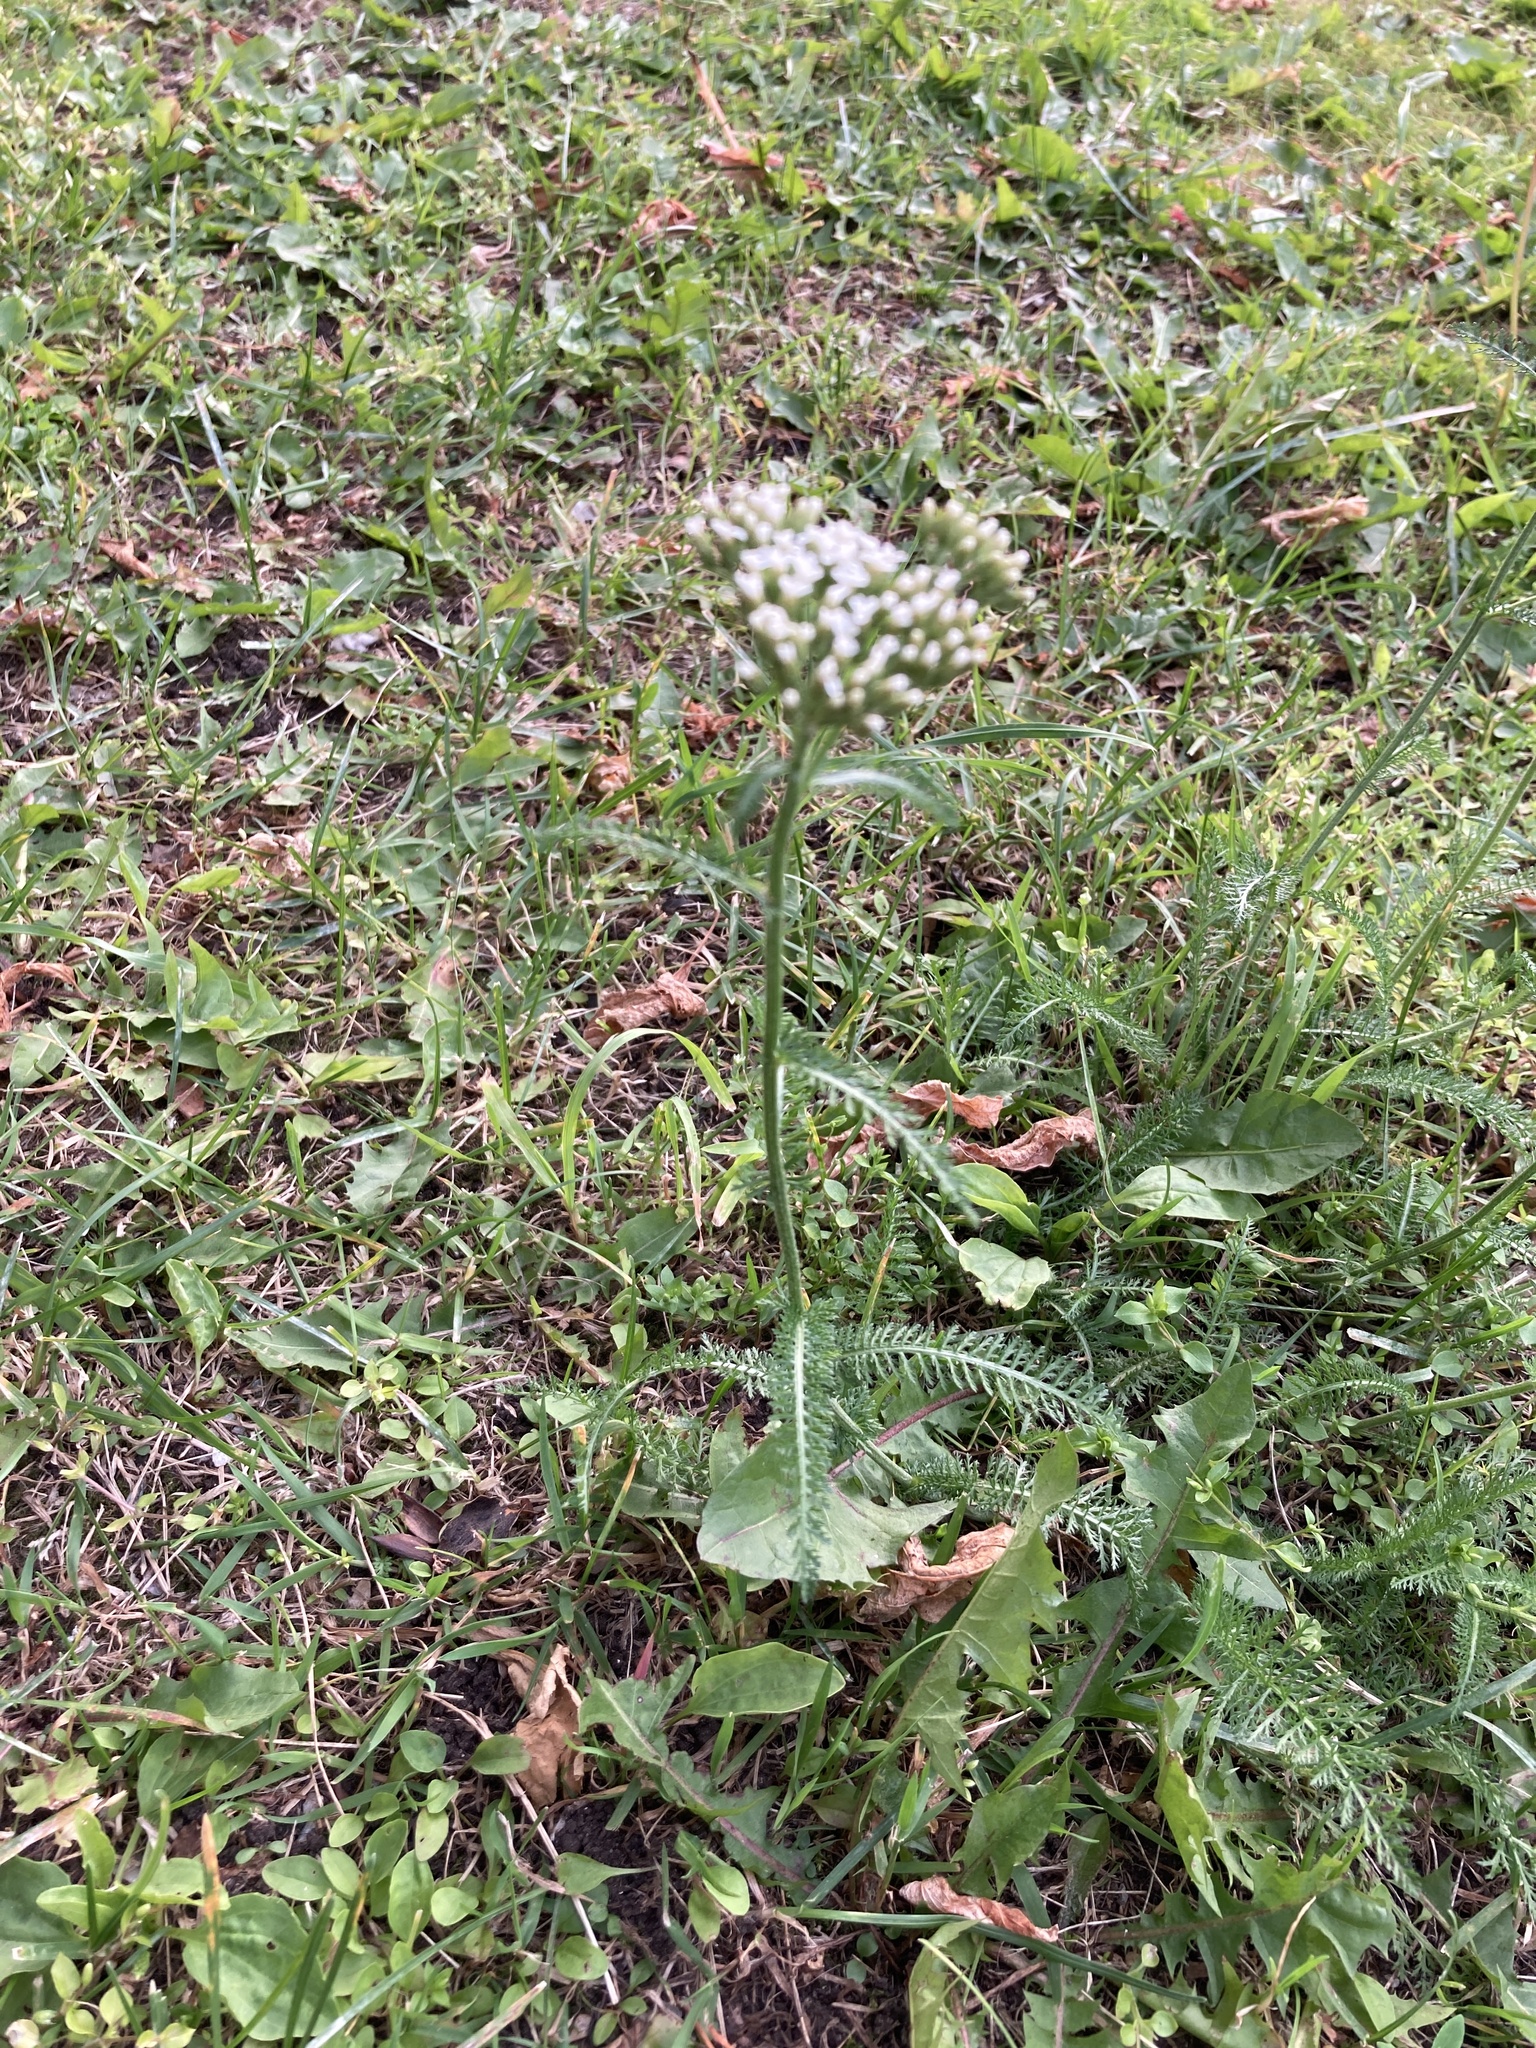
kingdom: Plantae
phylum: Tracheophyta
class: Magnoliopsida
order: Asterales
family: Asteraceae
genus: Achillea
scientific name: Achillea millefolium
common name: Yarrow
